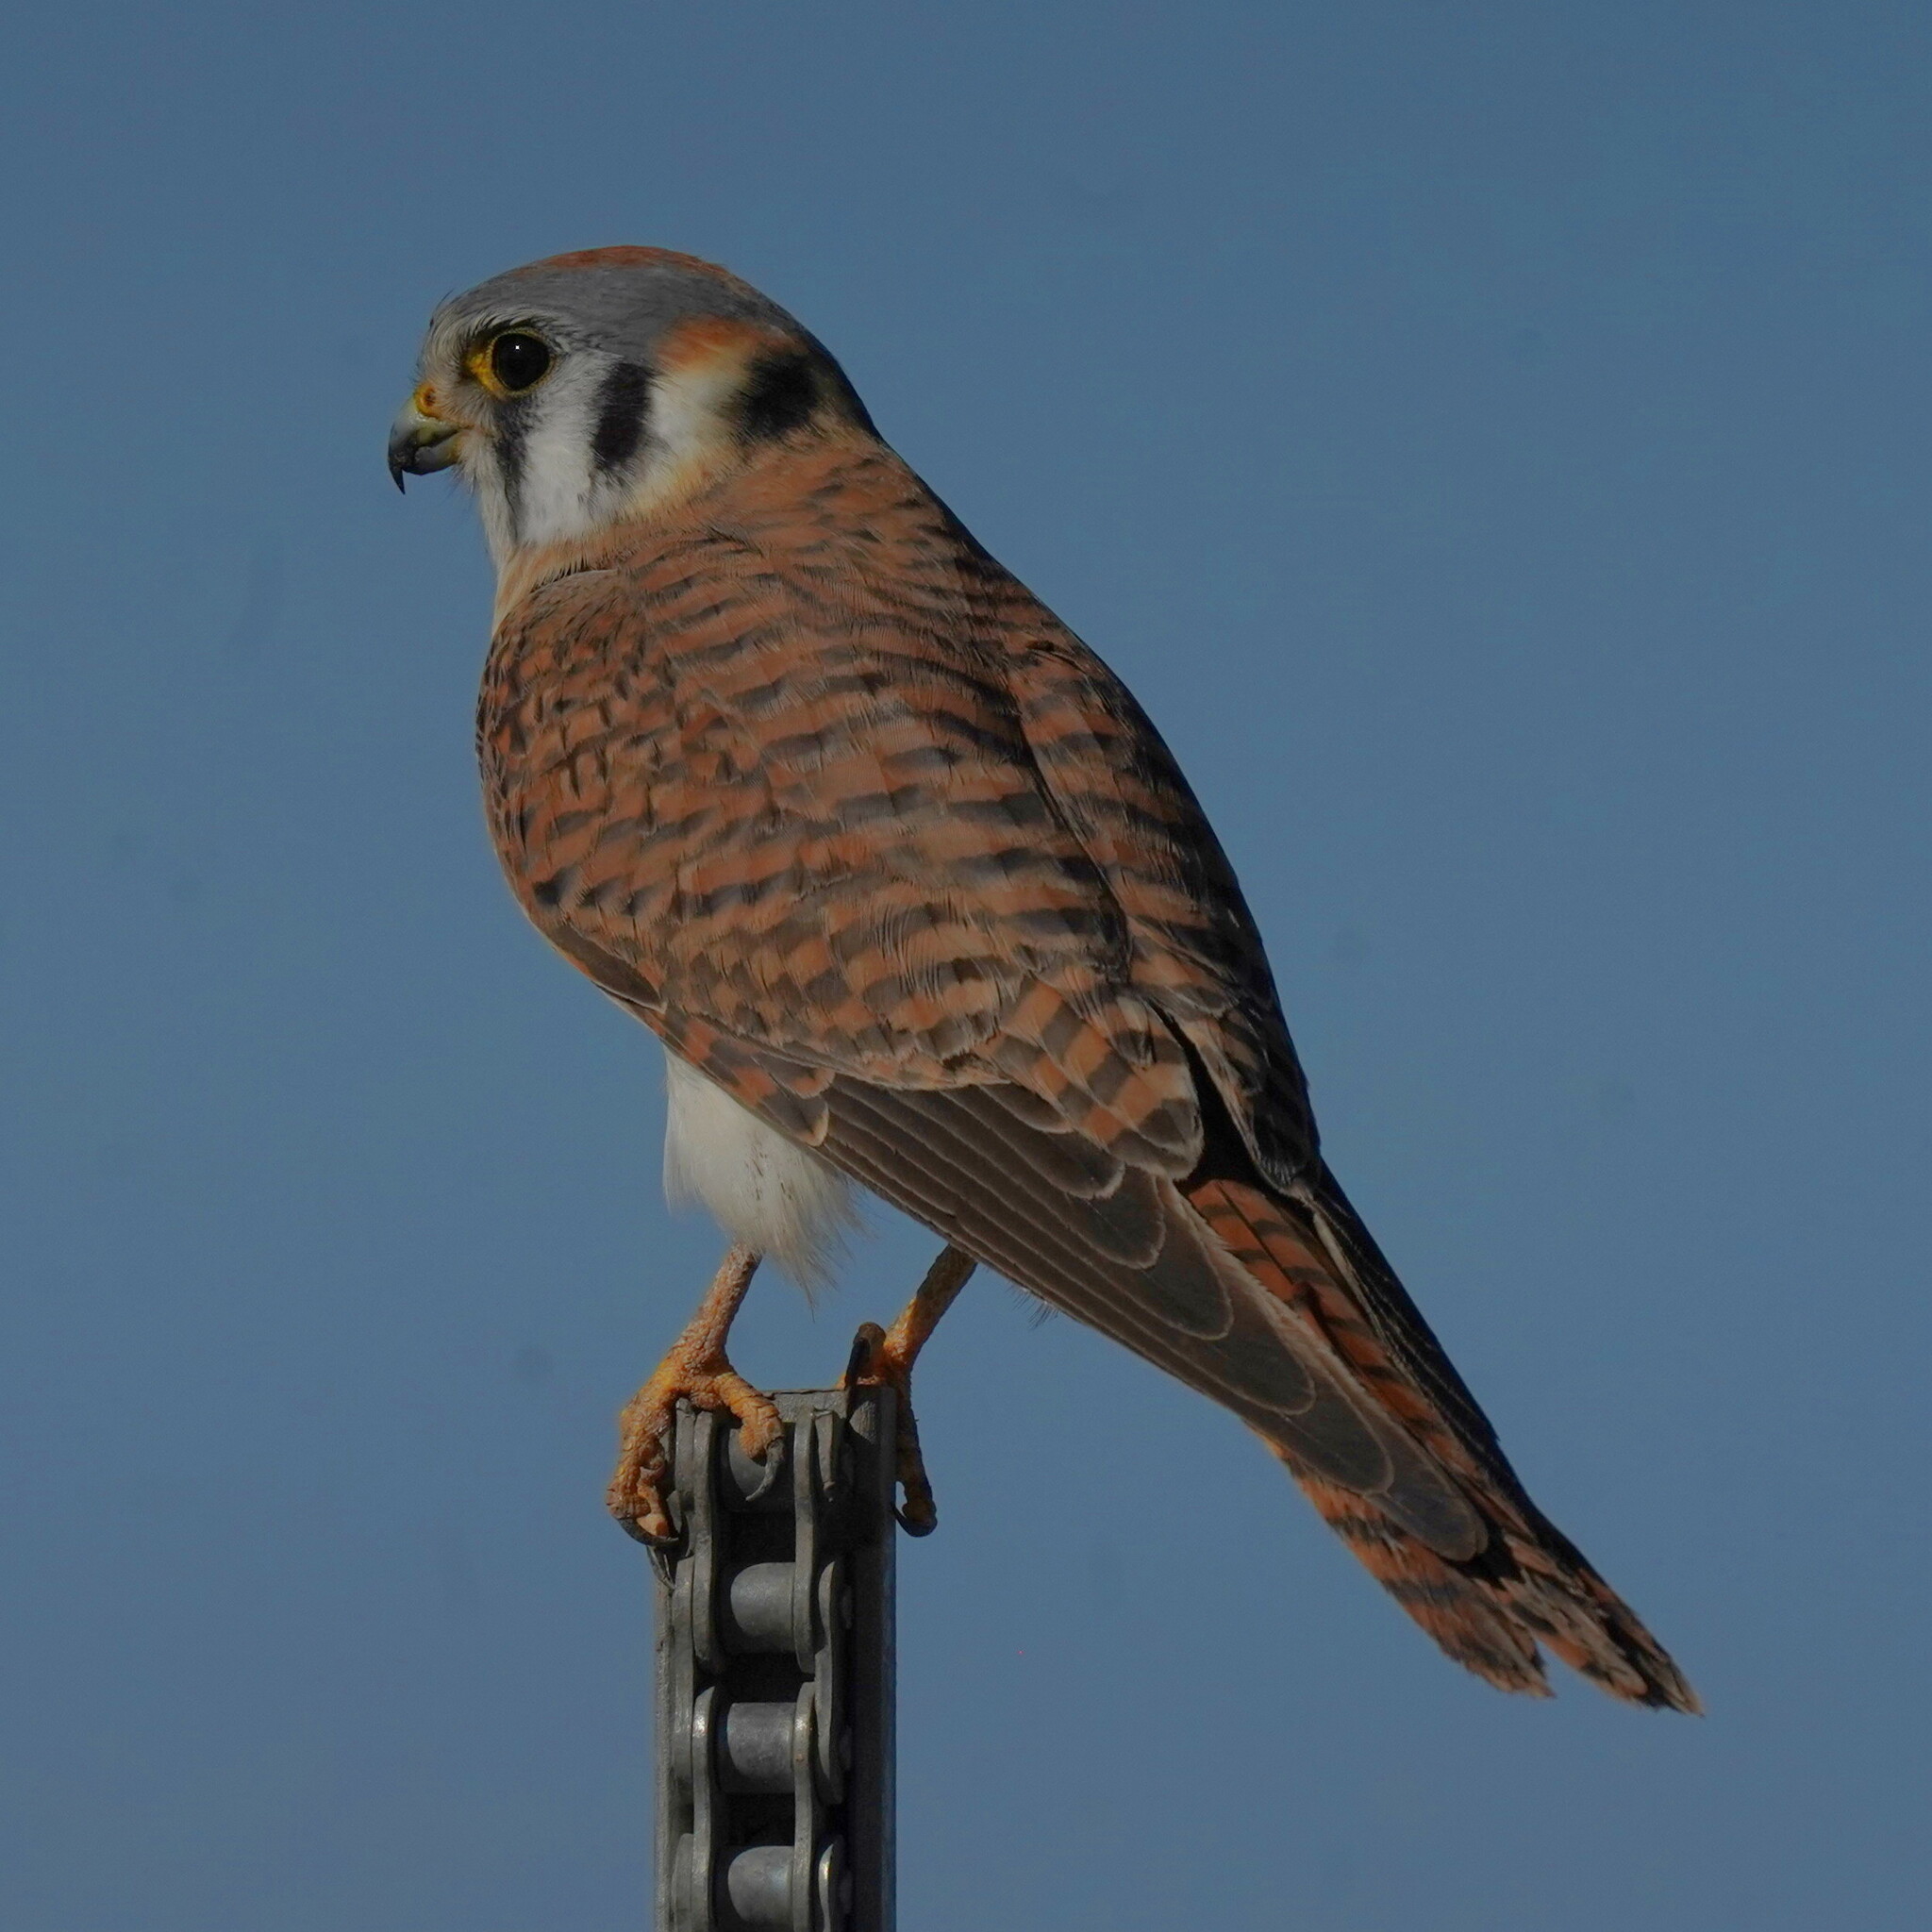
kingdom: Animalia
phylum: Chordata
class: Aves
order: Falconiformes
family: Falconidae
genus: Falco
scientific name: Falco sparverius
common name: American kestrel
